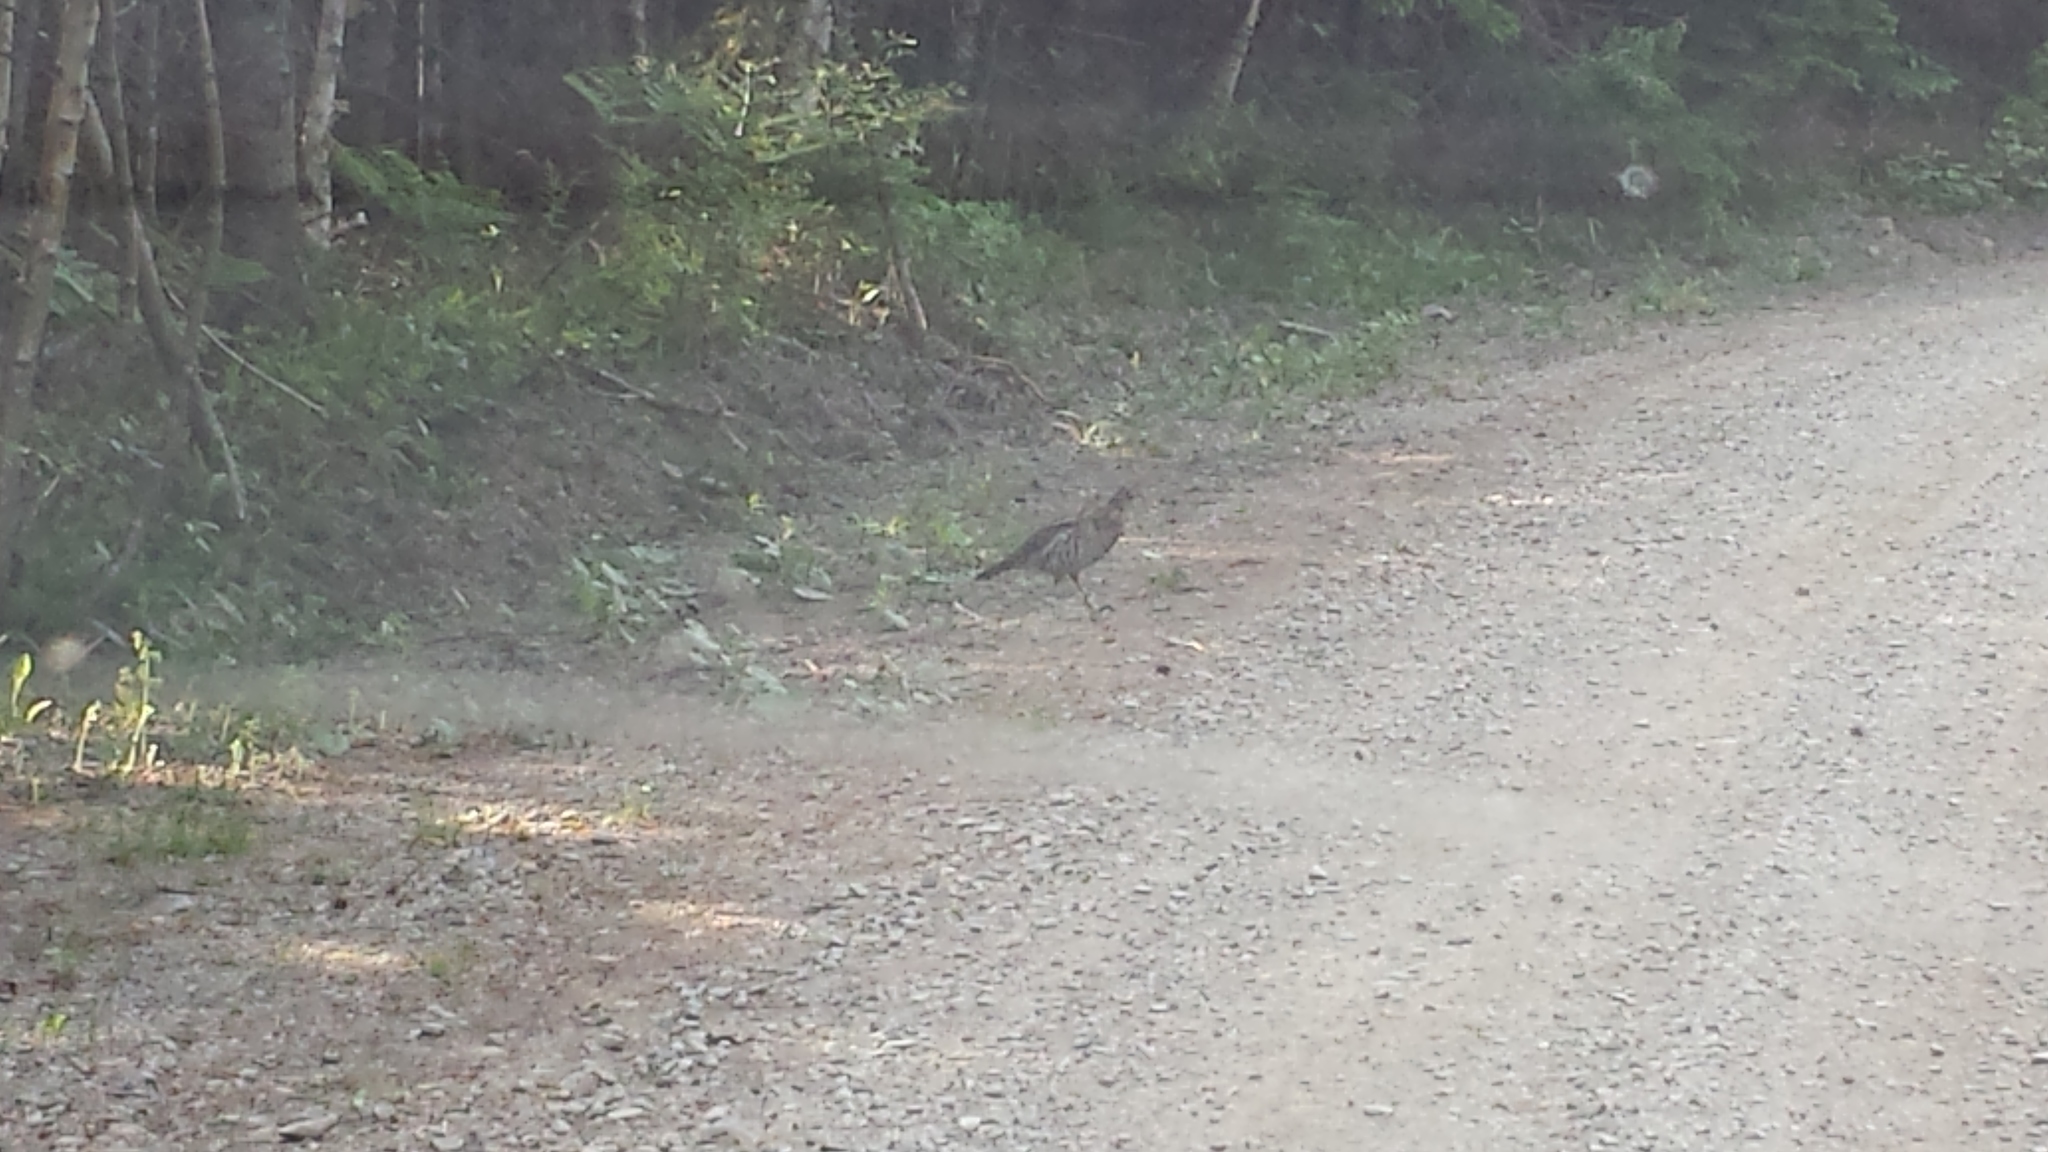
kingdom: Animalia
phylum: Chordata
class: Aves
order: Galliformes
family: Phasianidae
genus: Bonasa
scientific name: Bonasa umbellus
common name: Ruffed grouse
